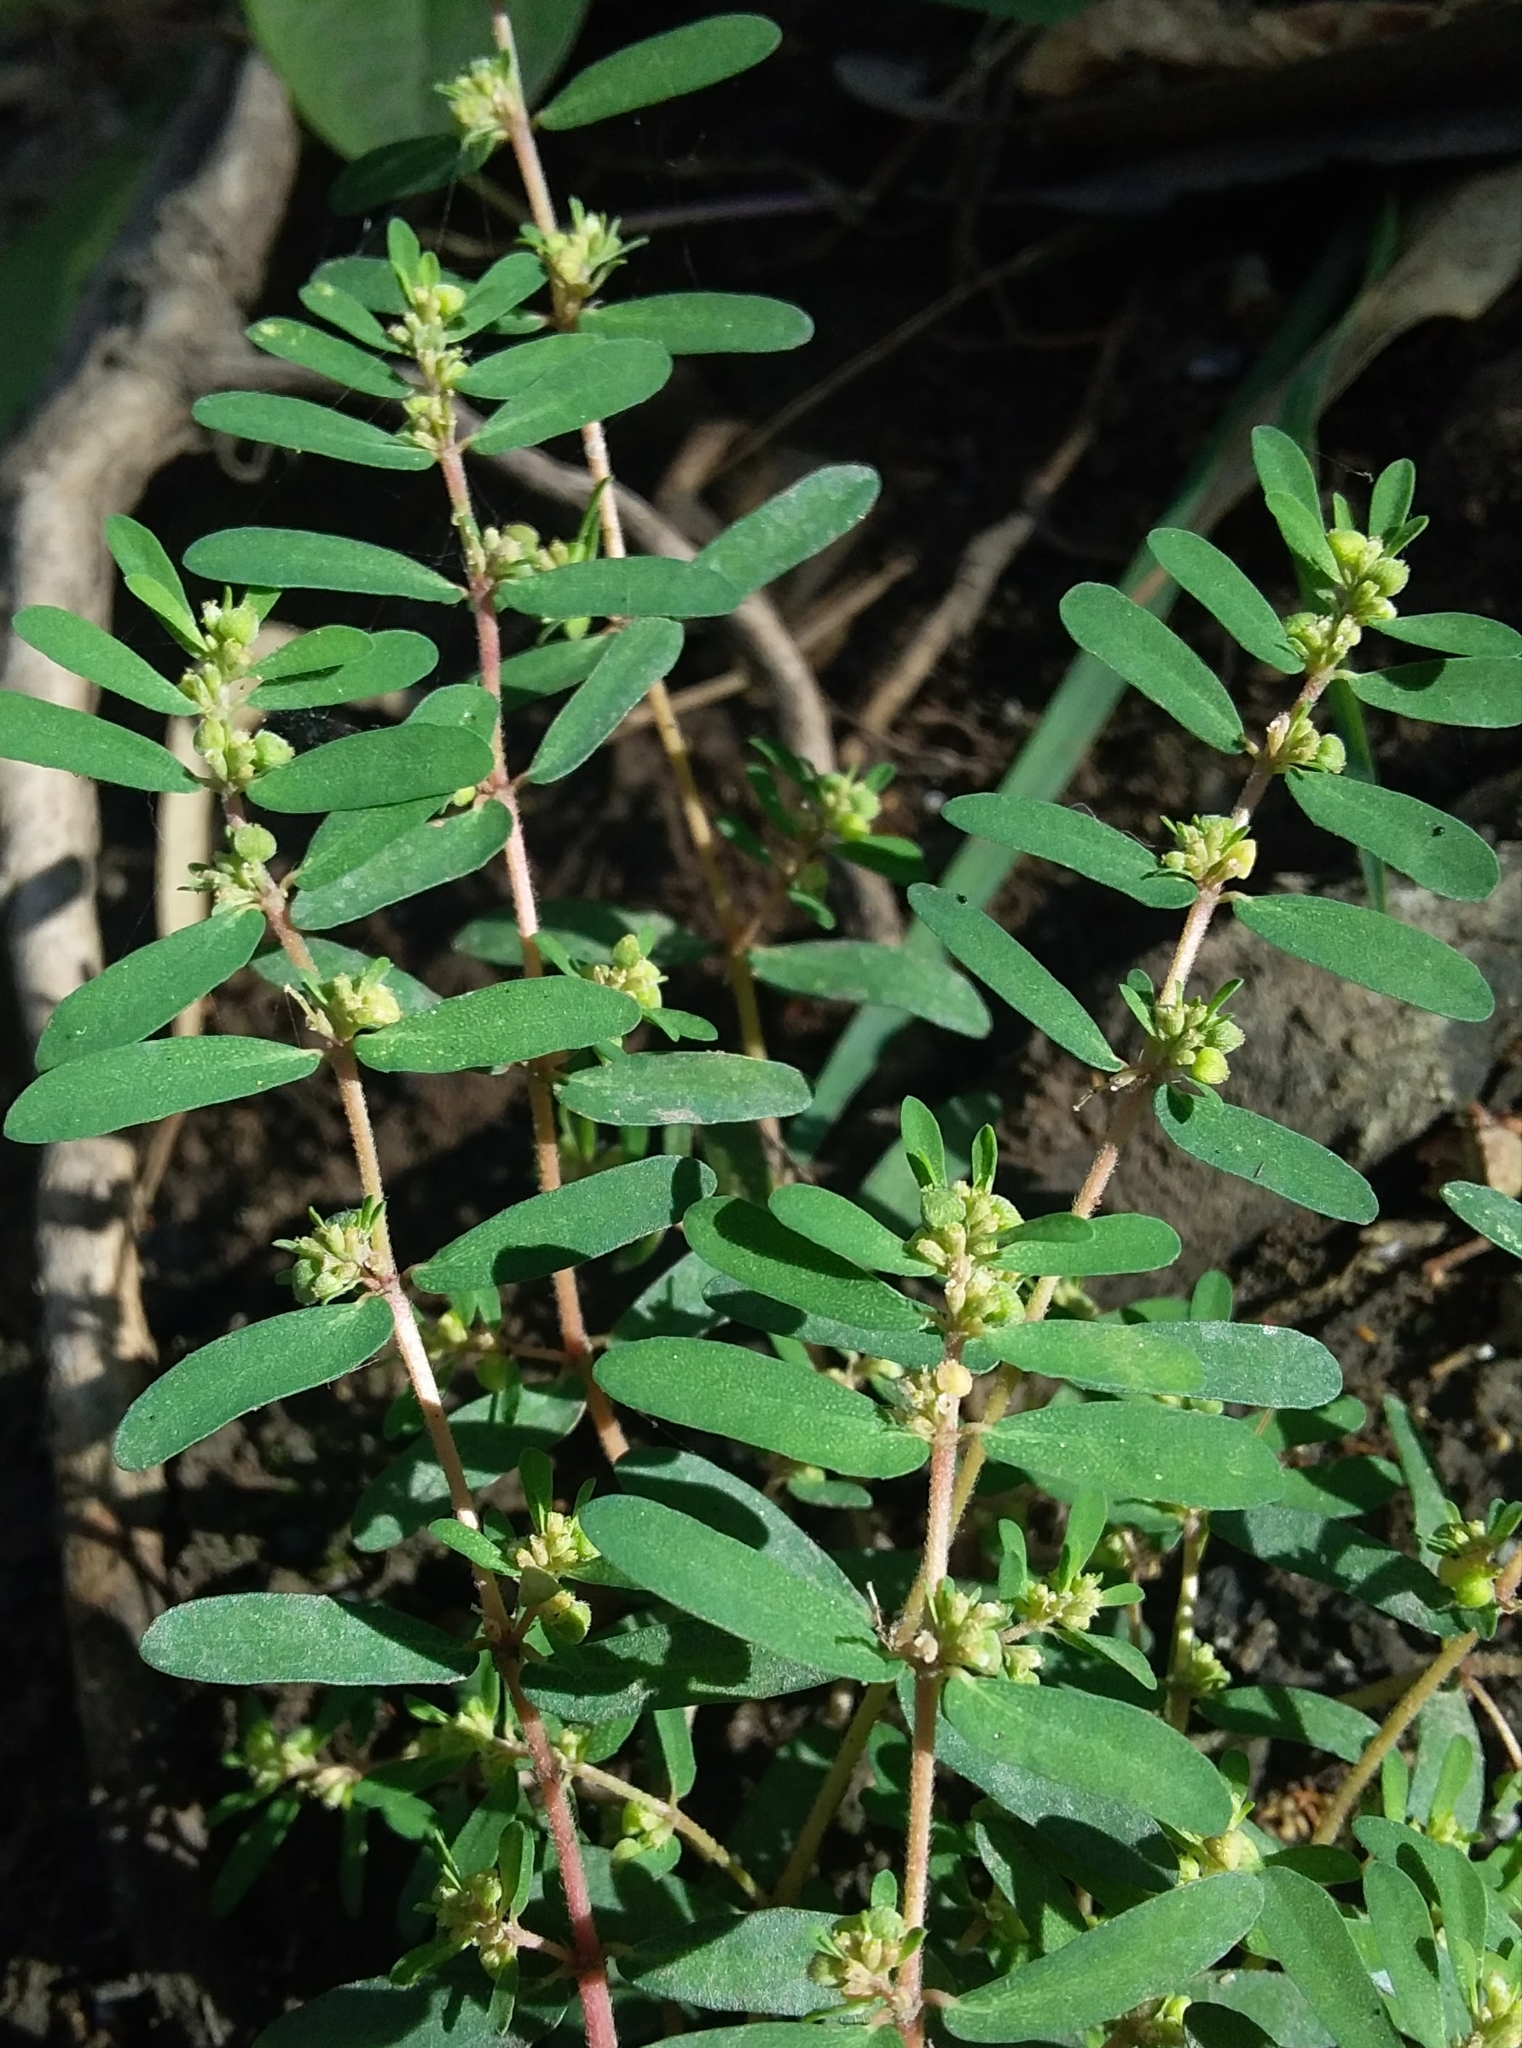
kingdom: Plantae
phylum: Tracheophyta
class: Magnoliopsida
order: Malpighiales
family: Euphorbiaceae
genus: Euphorbia
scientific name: Euphorbia maculata
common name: Spotted spurge
